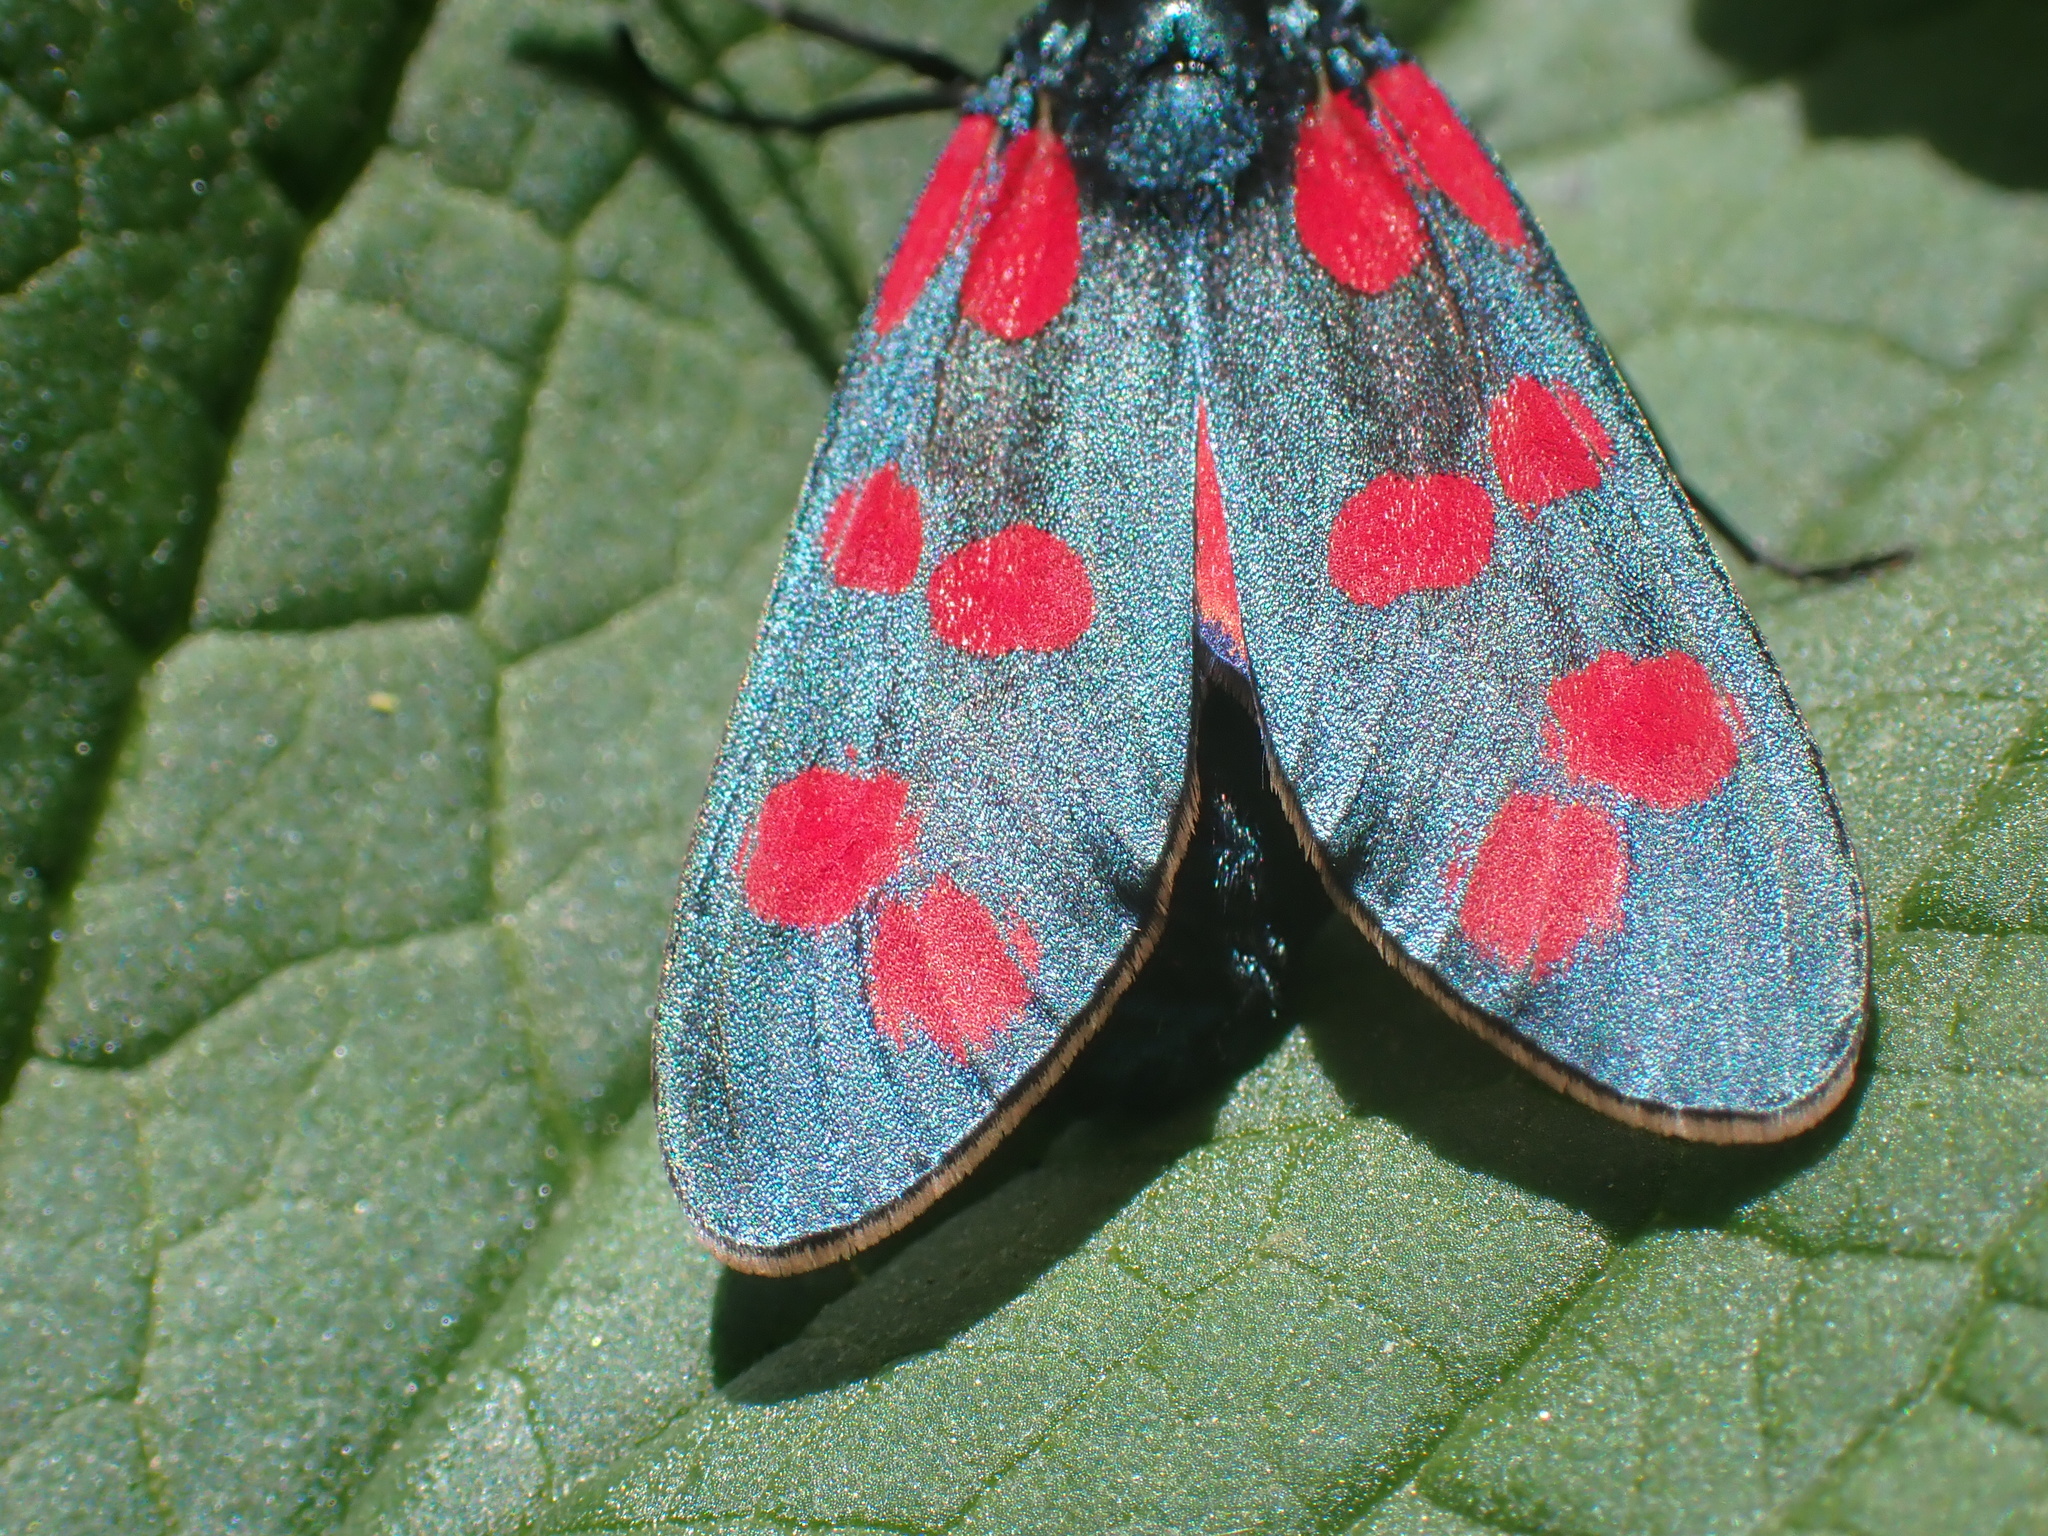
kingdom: Animalia
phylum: Arthropoda
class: Insecta
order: Lepidoptera
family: Zygaenidae
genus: Zygaena
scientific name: Zygaena filipendulae
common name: Six-spot burnet
